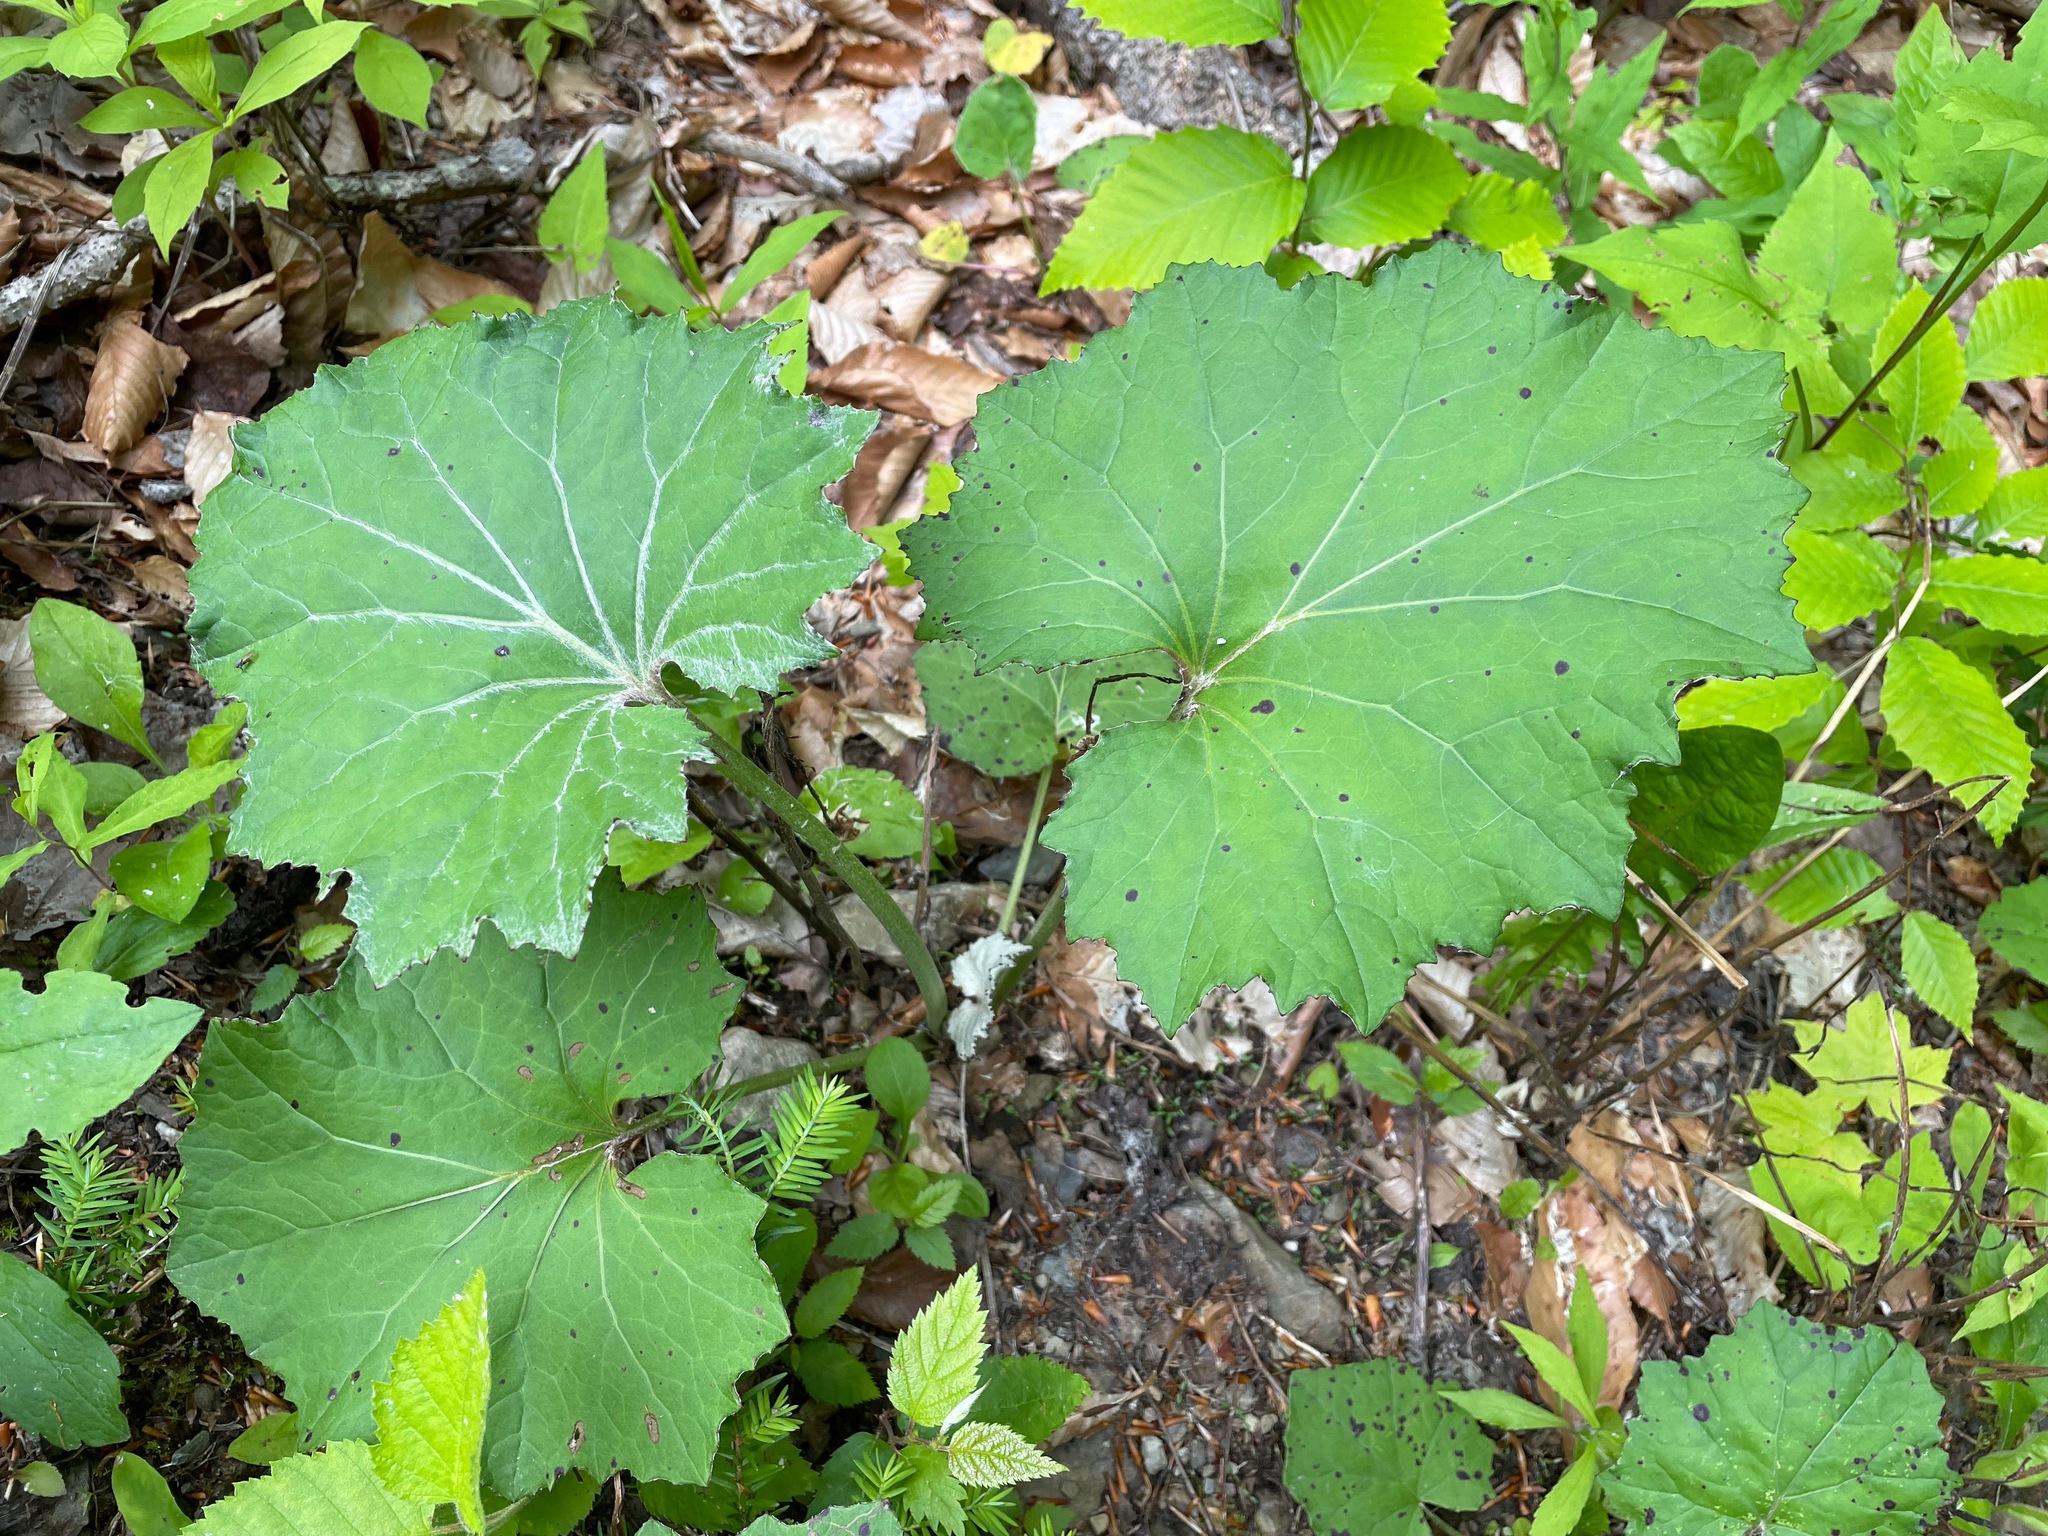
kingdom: Plantae
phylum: Tracheophyta
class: Magnoliopsida
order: Asterales
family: Asteraceae
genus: Tussilago
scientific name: Tussilago farfara
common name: Coltsfoot
